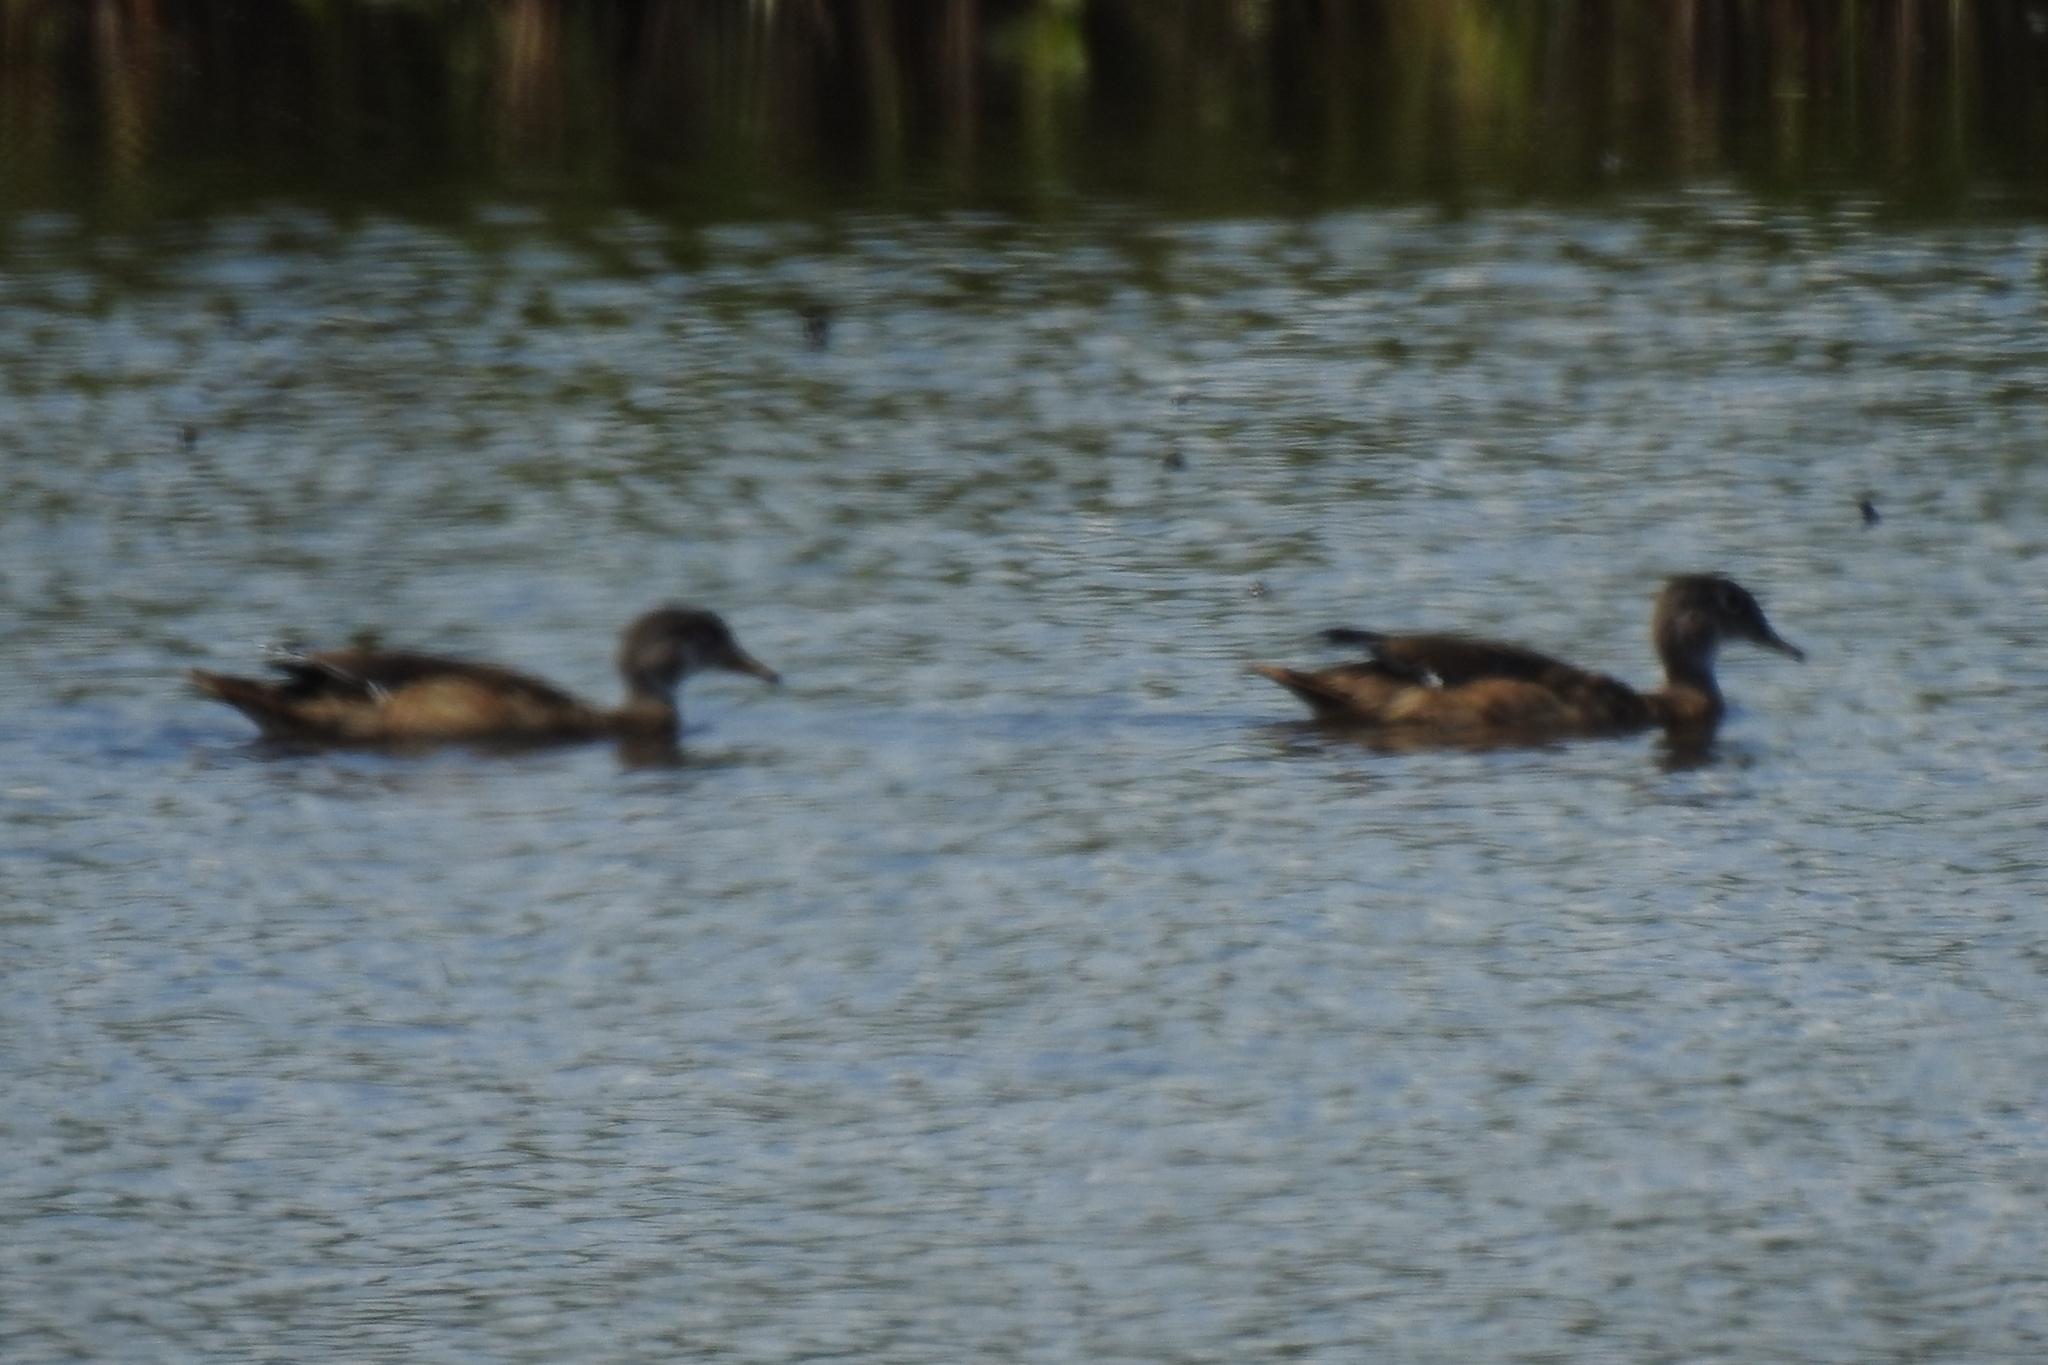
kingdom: Animalia
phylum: Chordata
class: Aves
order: Anseriformes
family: Anatidae
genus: Aix
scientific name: Aix sponsa
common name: Wood duck
